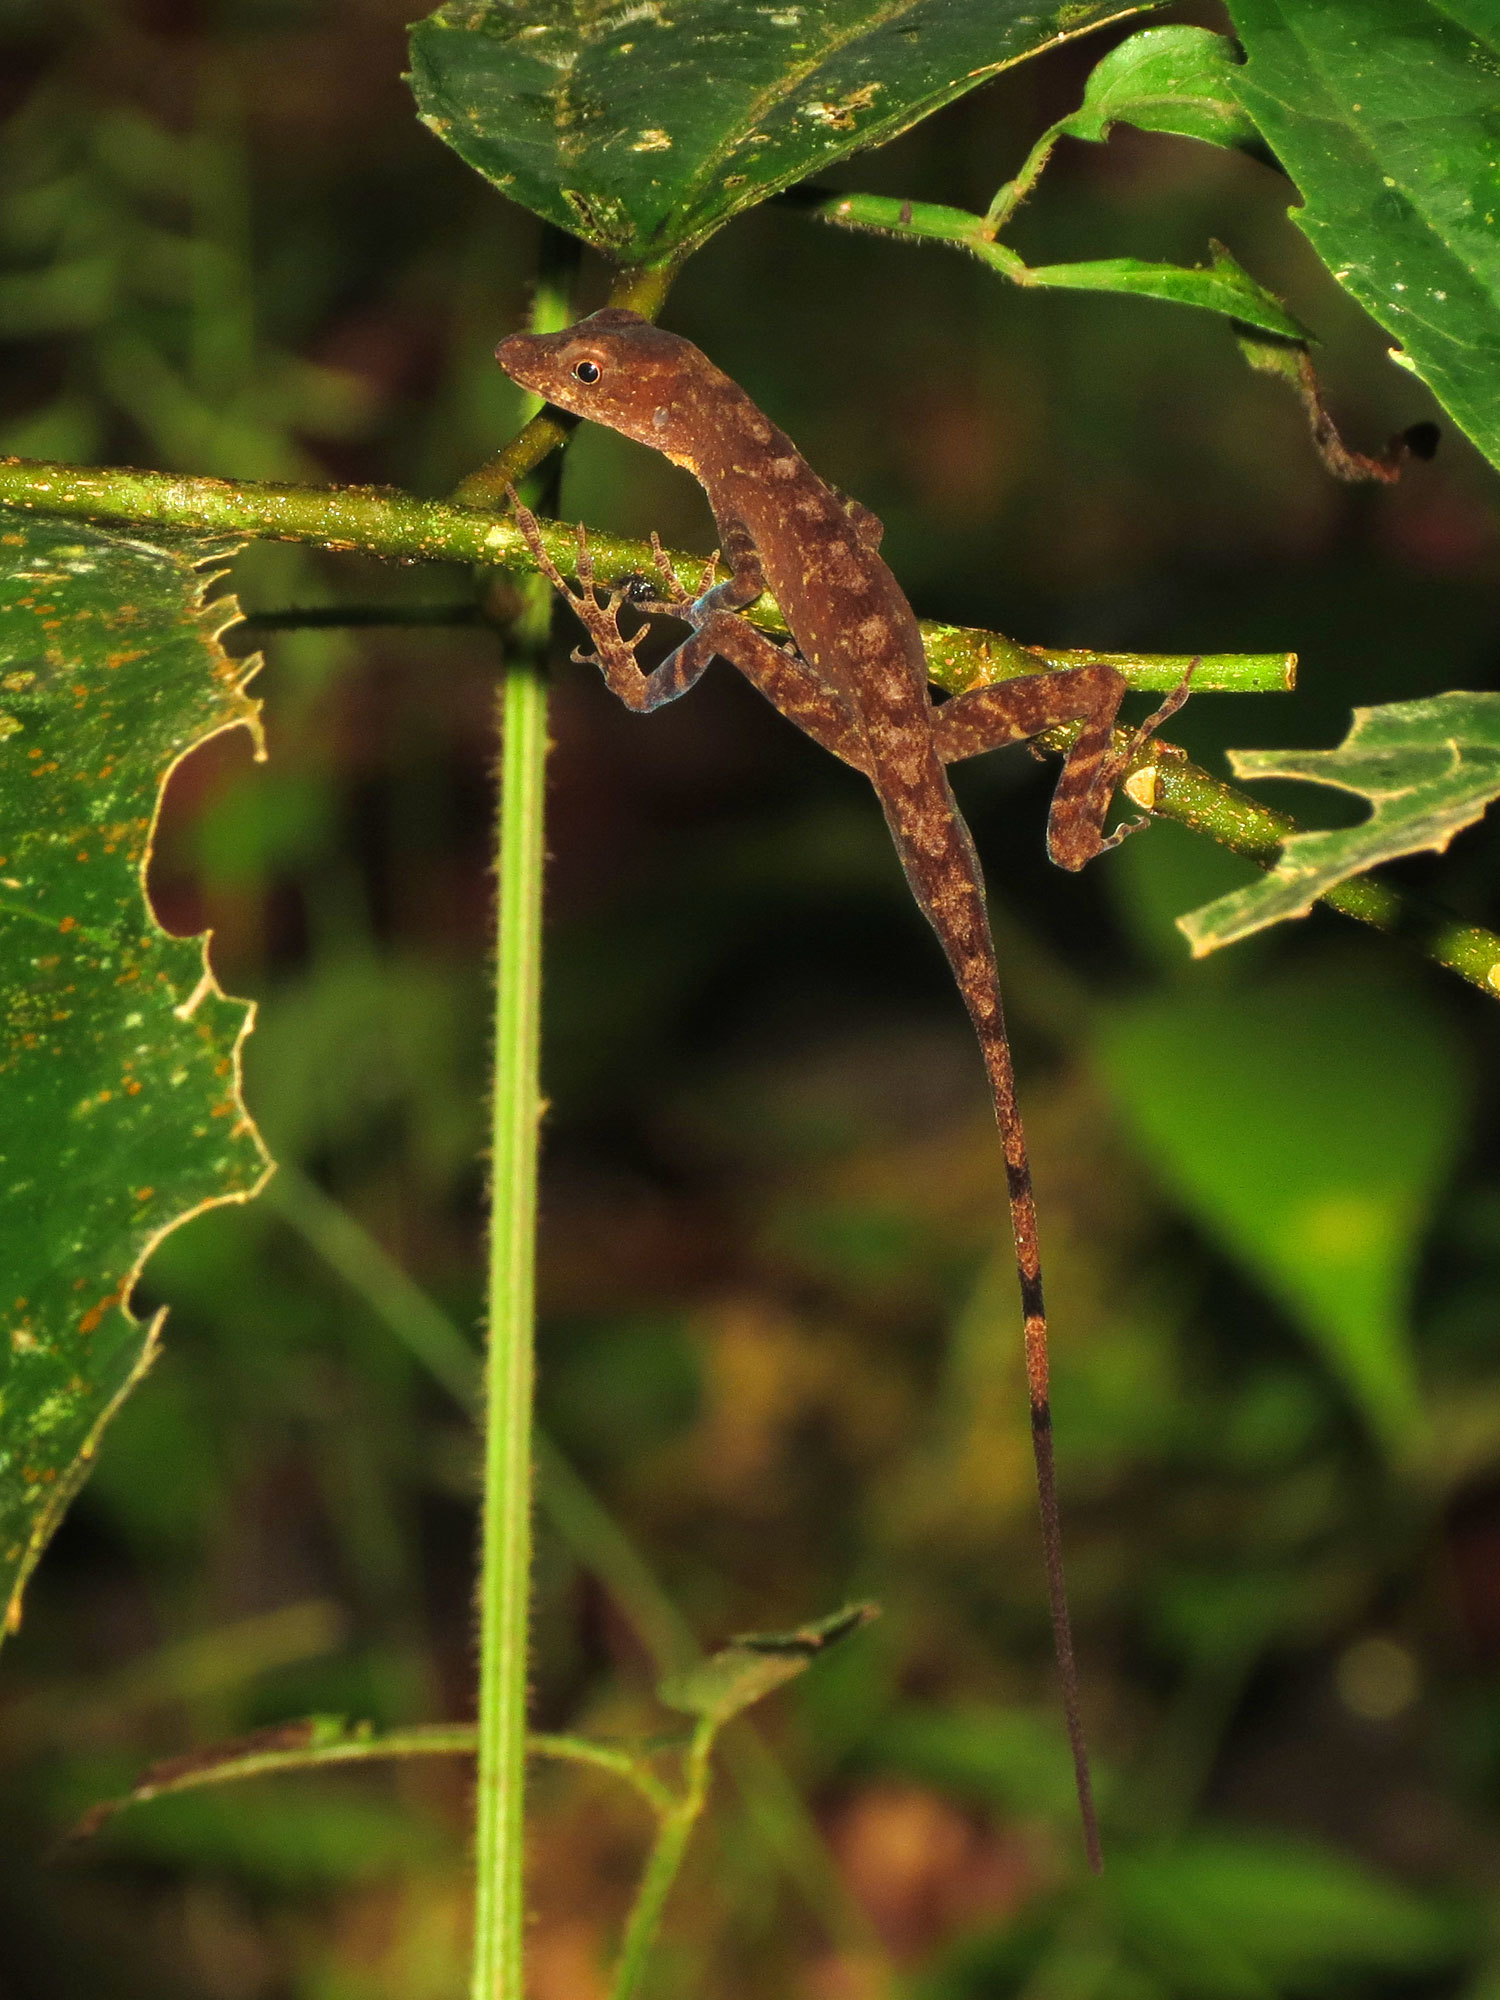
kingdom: Animalia
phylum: Chordata
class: Squamata
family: Dactyloidae
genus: Anolis
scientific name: Anolis apletophallus
